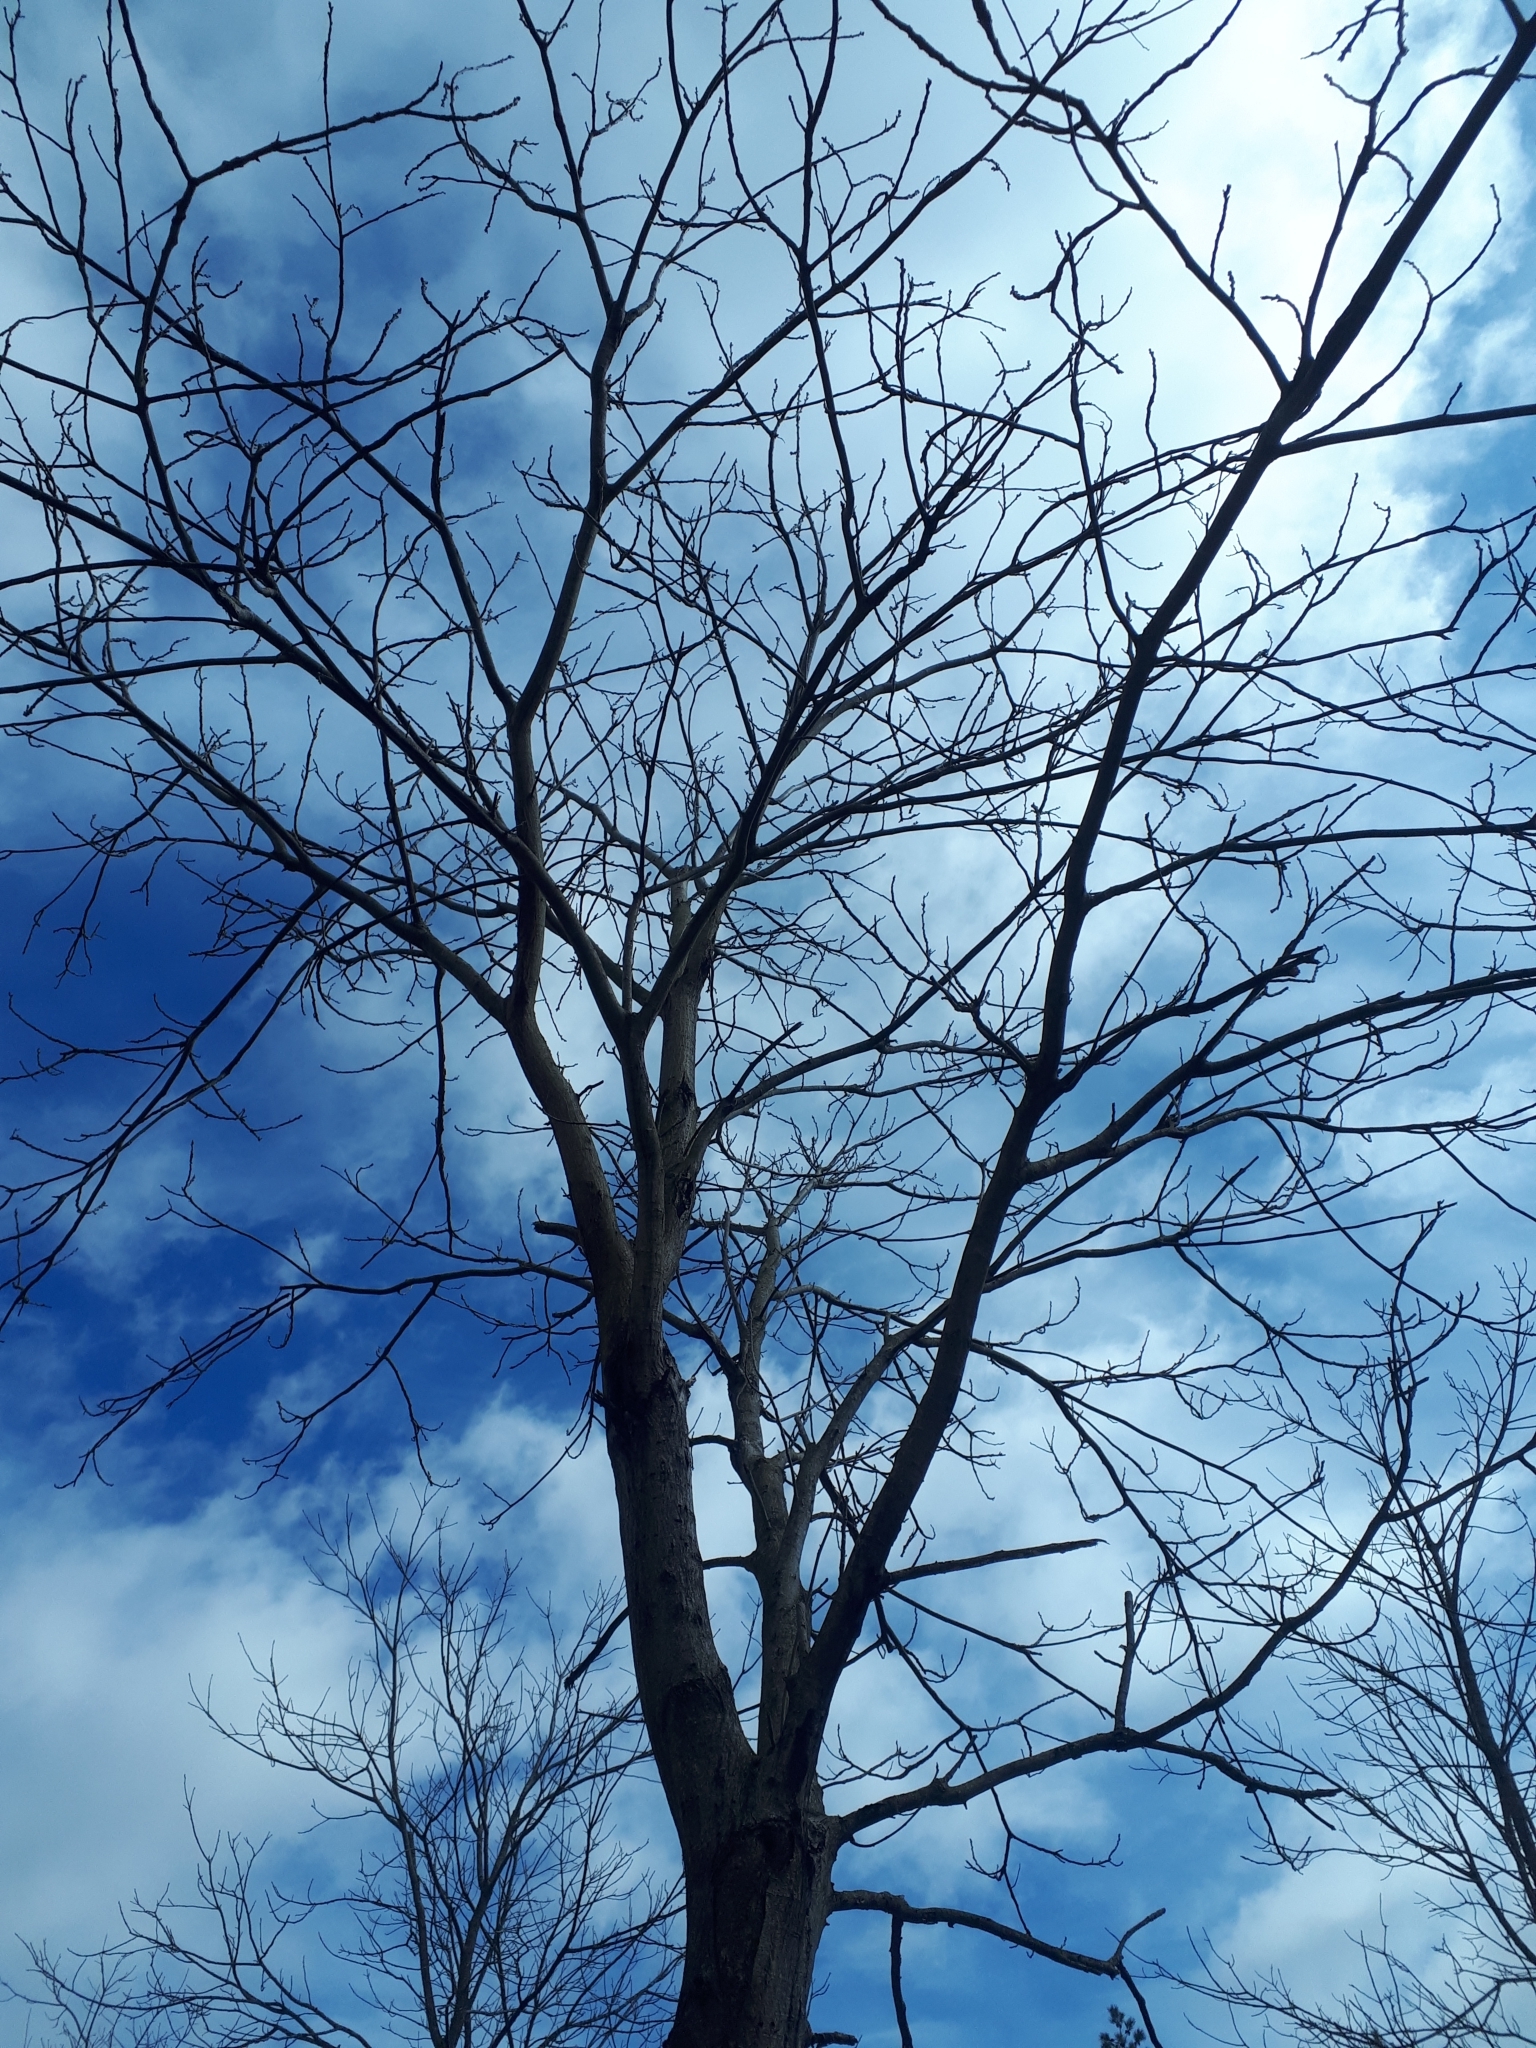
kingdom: Plantae
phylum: Tracheophyta
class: Magnoliopsida
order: Fagales
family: Juglandaceae
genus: Juglans
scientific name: Juglans cinerea
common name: Butternut
